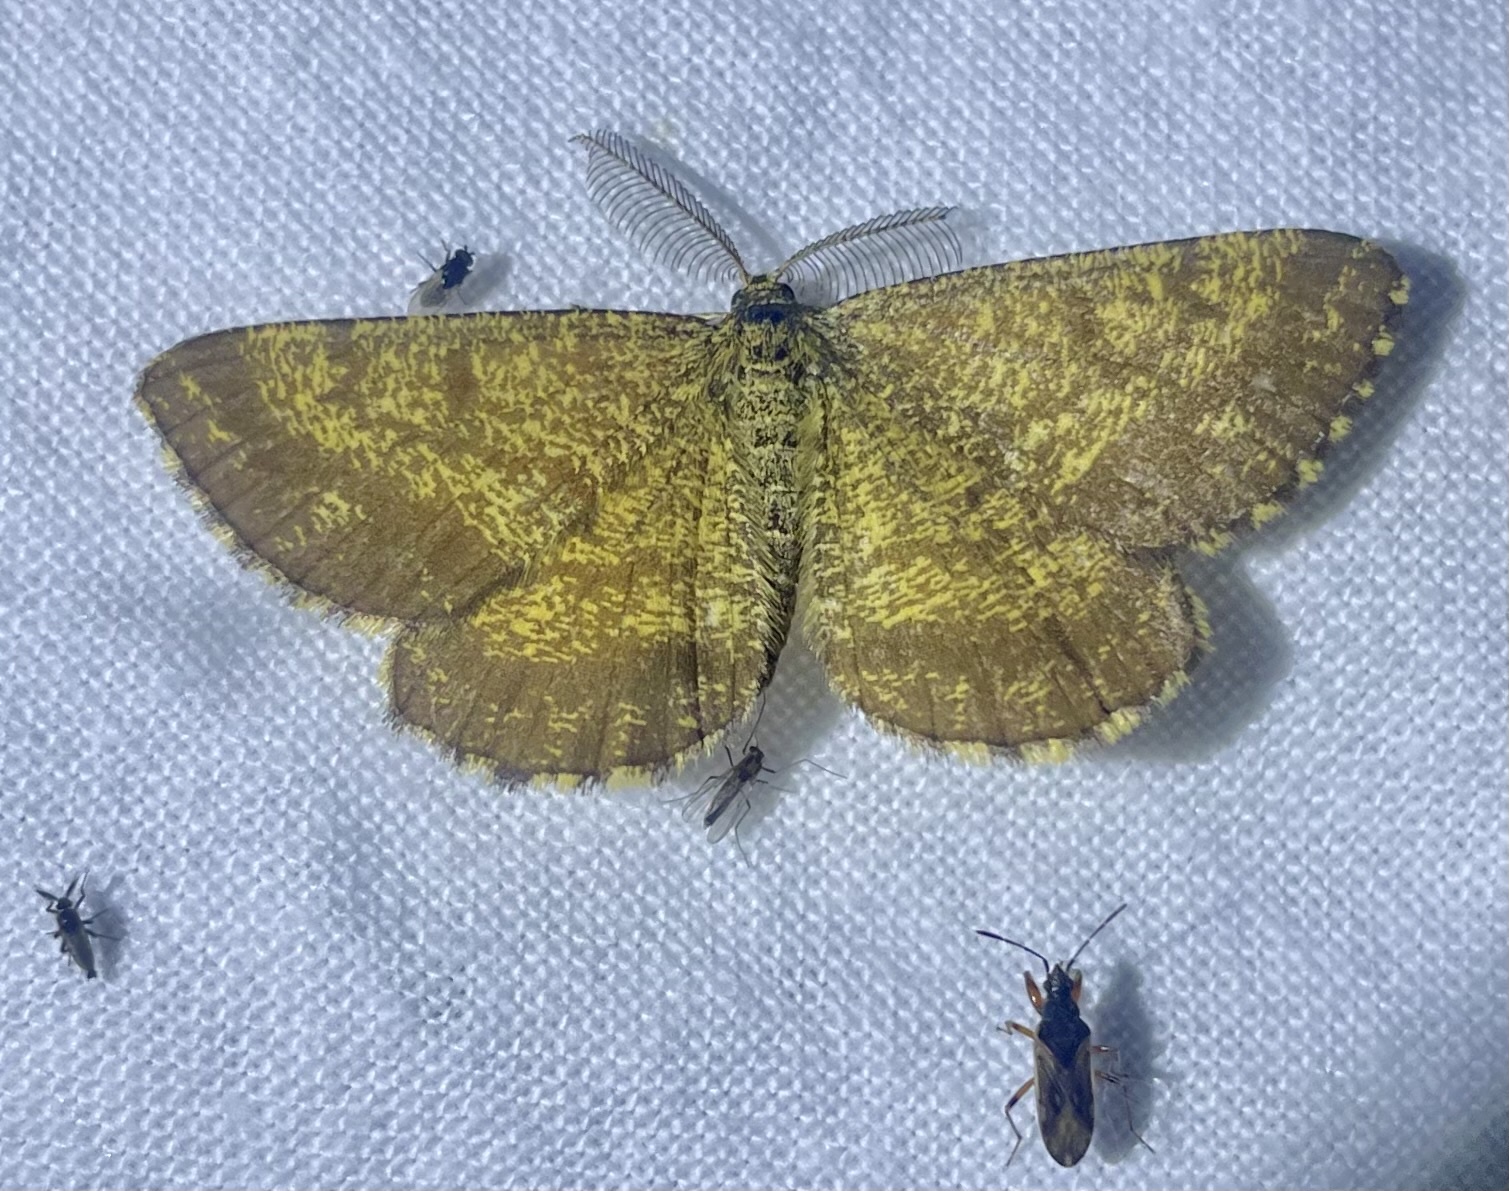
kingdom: Animalia
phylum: Arthropoda
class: Insecta
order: Lepidoptera
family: Geometridae
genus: Ematurga
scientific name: Ematurga atomaria
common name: Common heath
